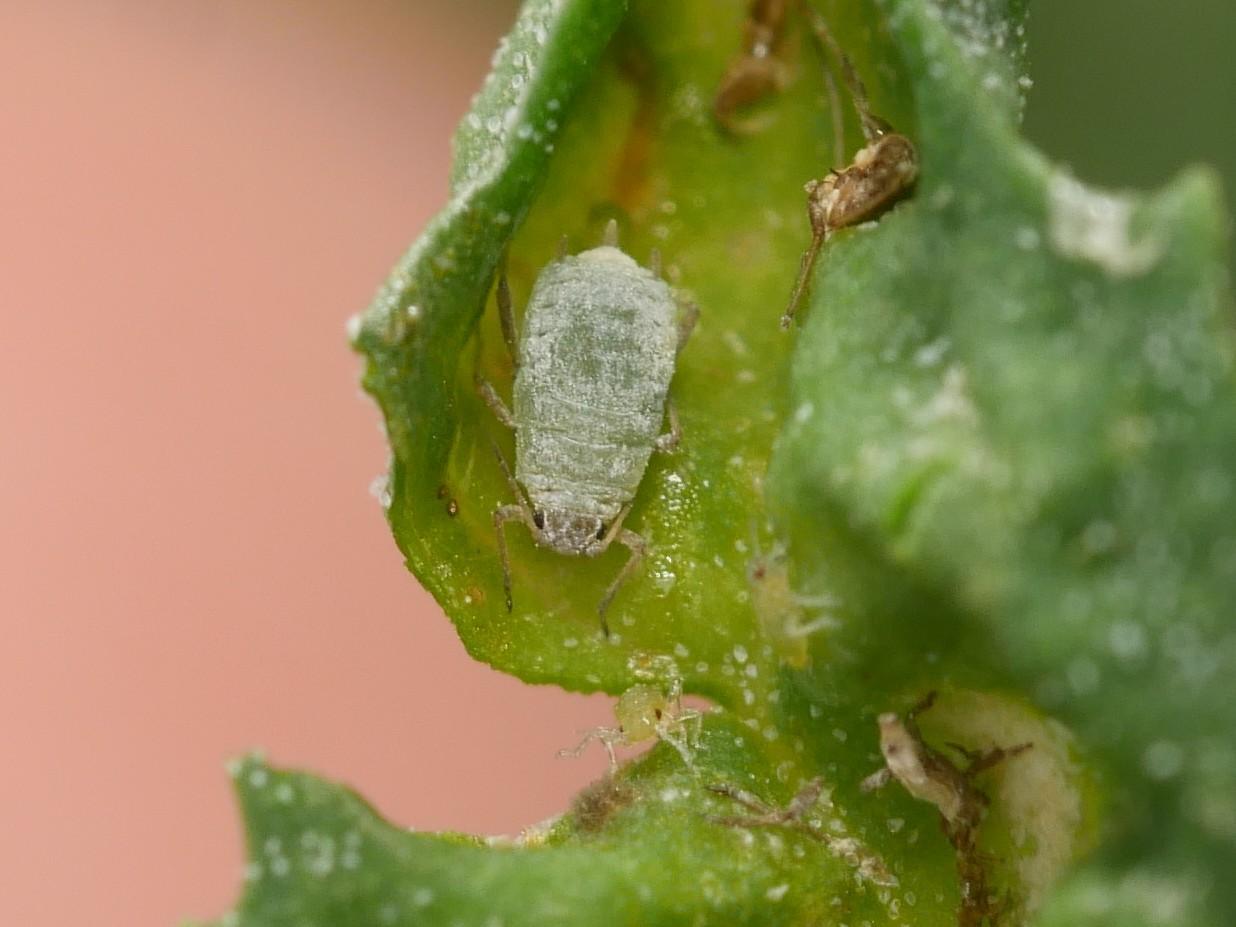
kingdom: Animalia
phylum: Arthropoda
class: Insecta
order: Hemiptera
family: Aphididae
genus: Hayhurstia
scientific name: Hayhurstia atriplicis
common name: Chenopodium aphid
